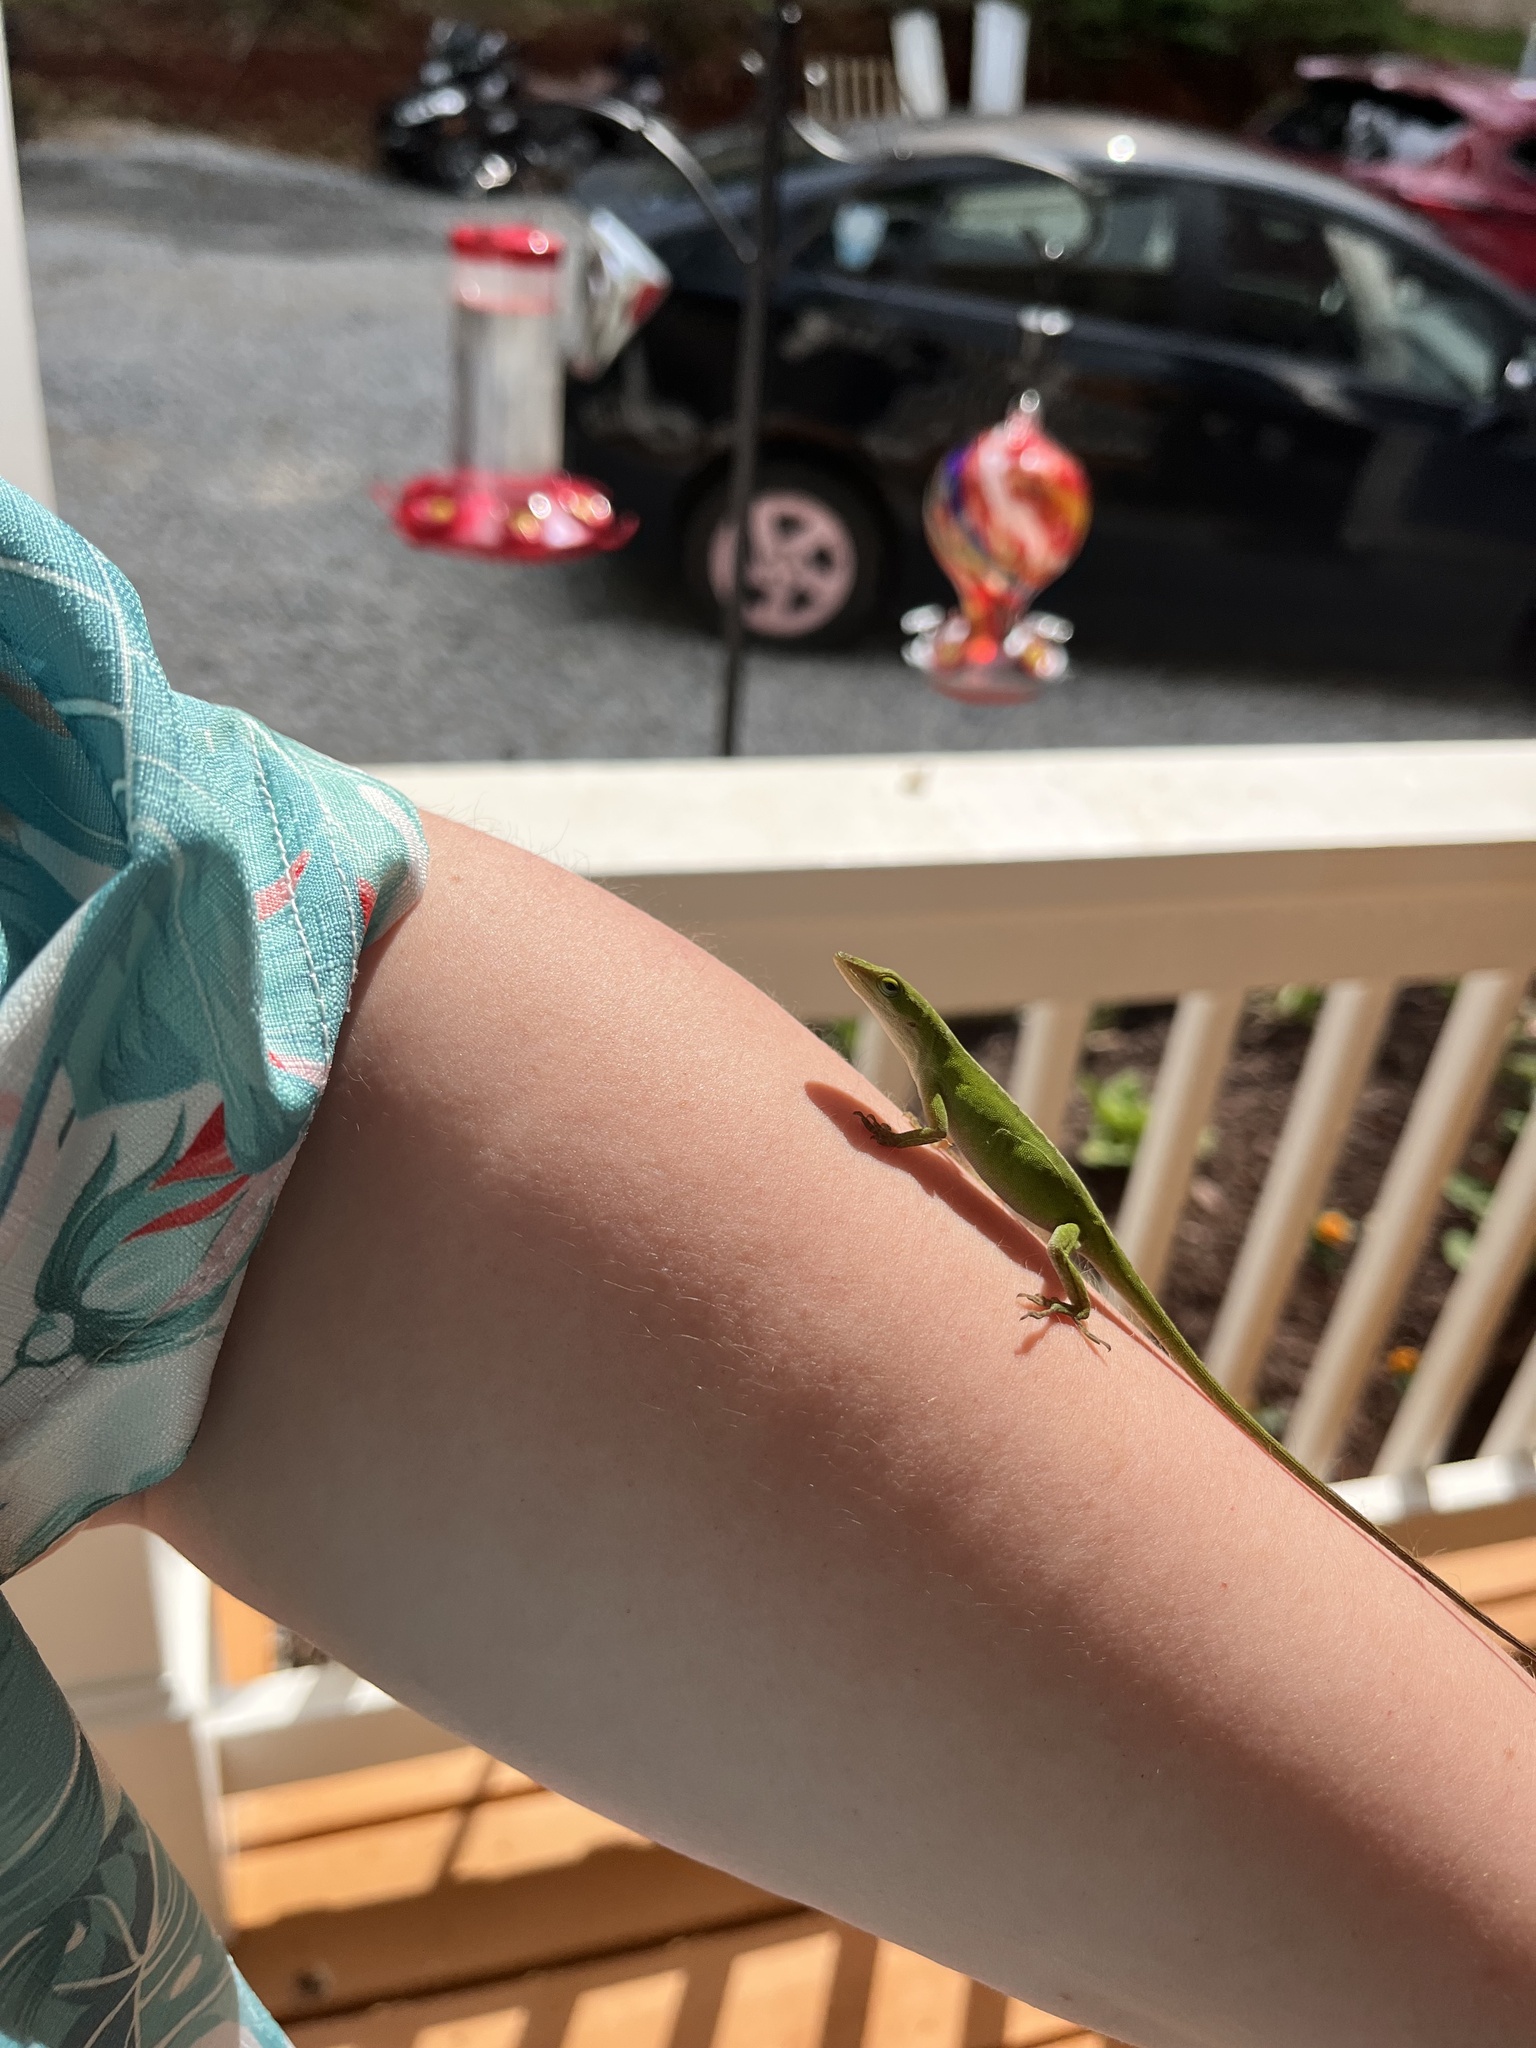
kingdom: Animalia
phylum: Chordata
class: Squamata
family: Dactyloidae
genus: Anolis
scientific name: Anolis carolinensis
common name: Green anole
